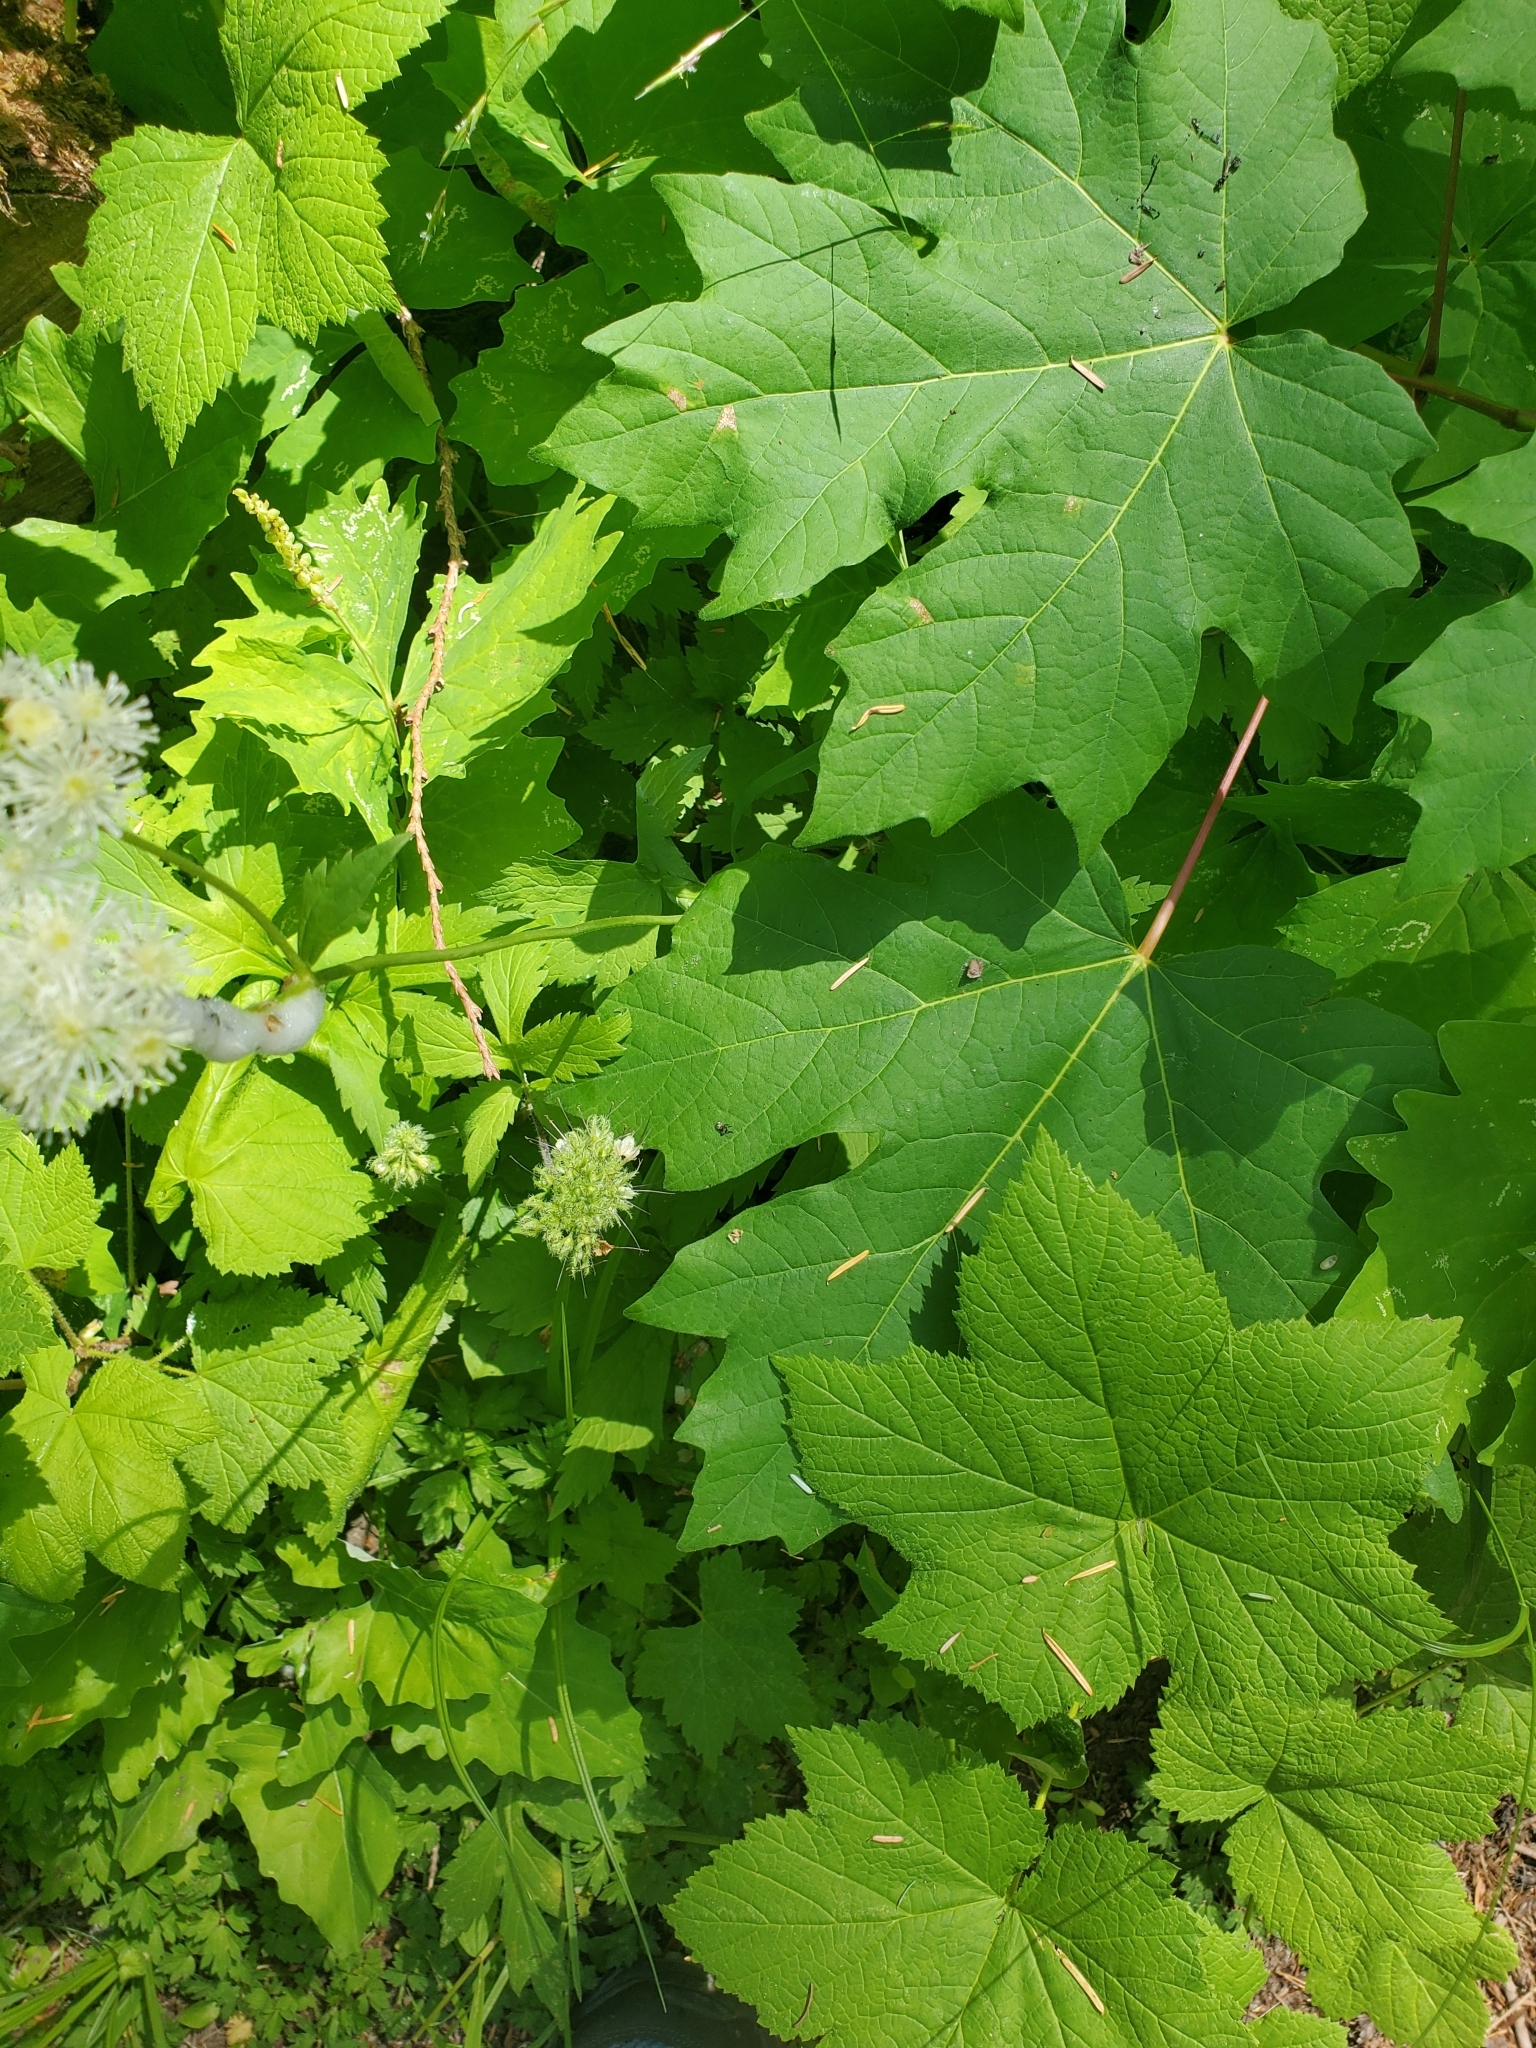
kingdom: Plantae
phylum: Tracheophyta
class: Magnoliopsida
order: Ranunculales
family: Ranunculaceae
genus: Trautvetteria
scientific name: Trautvetteria carolinensis
